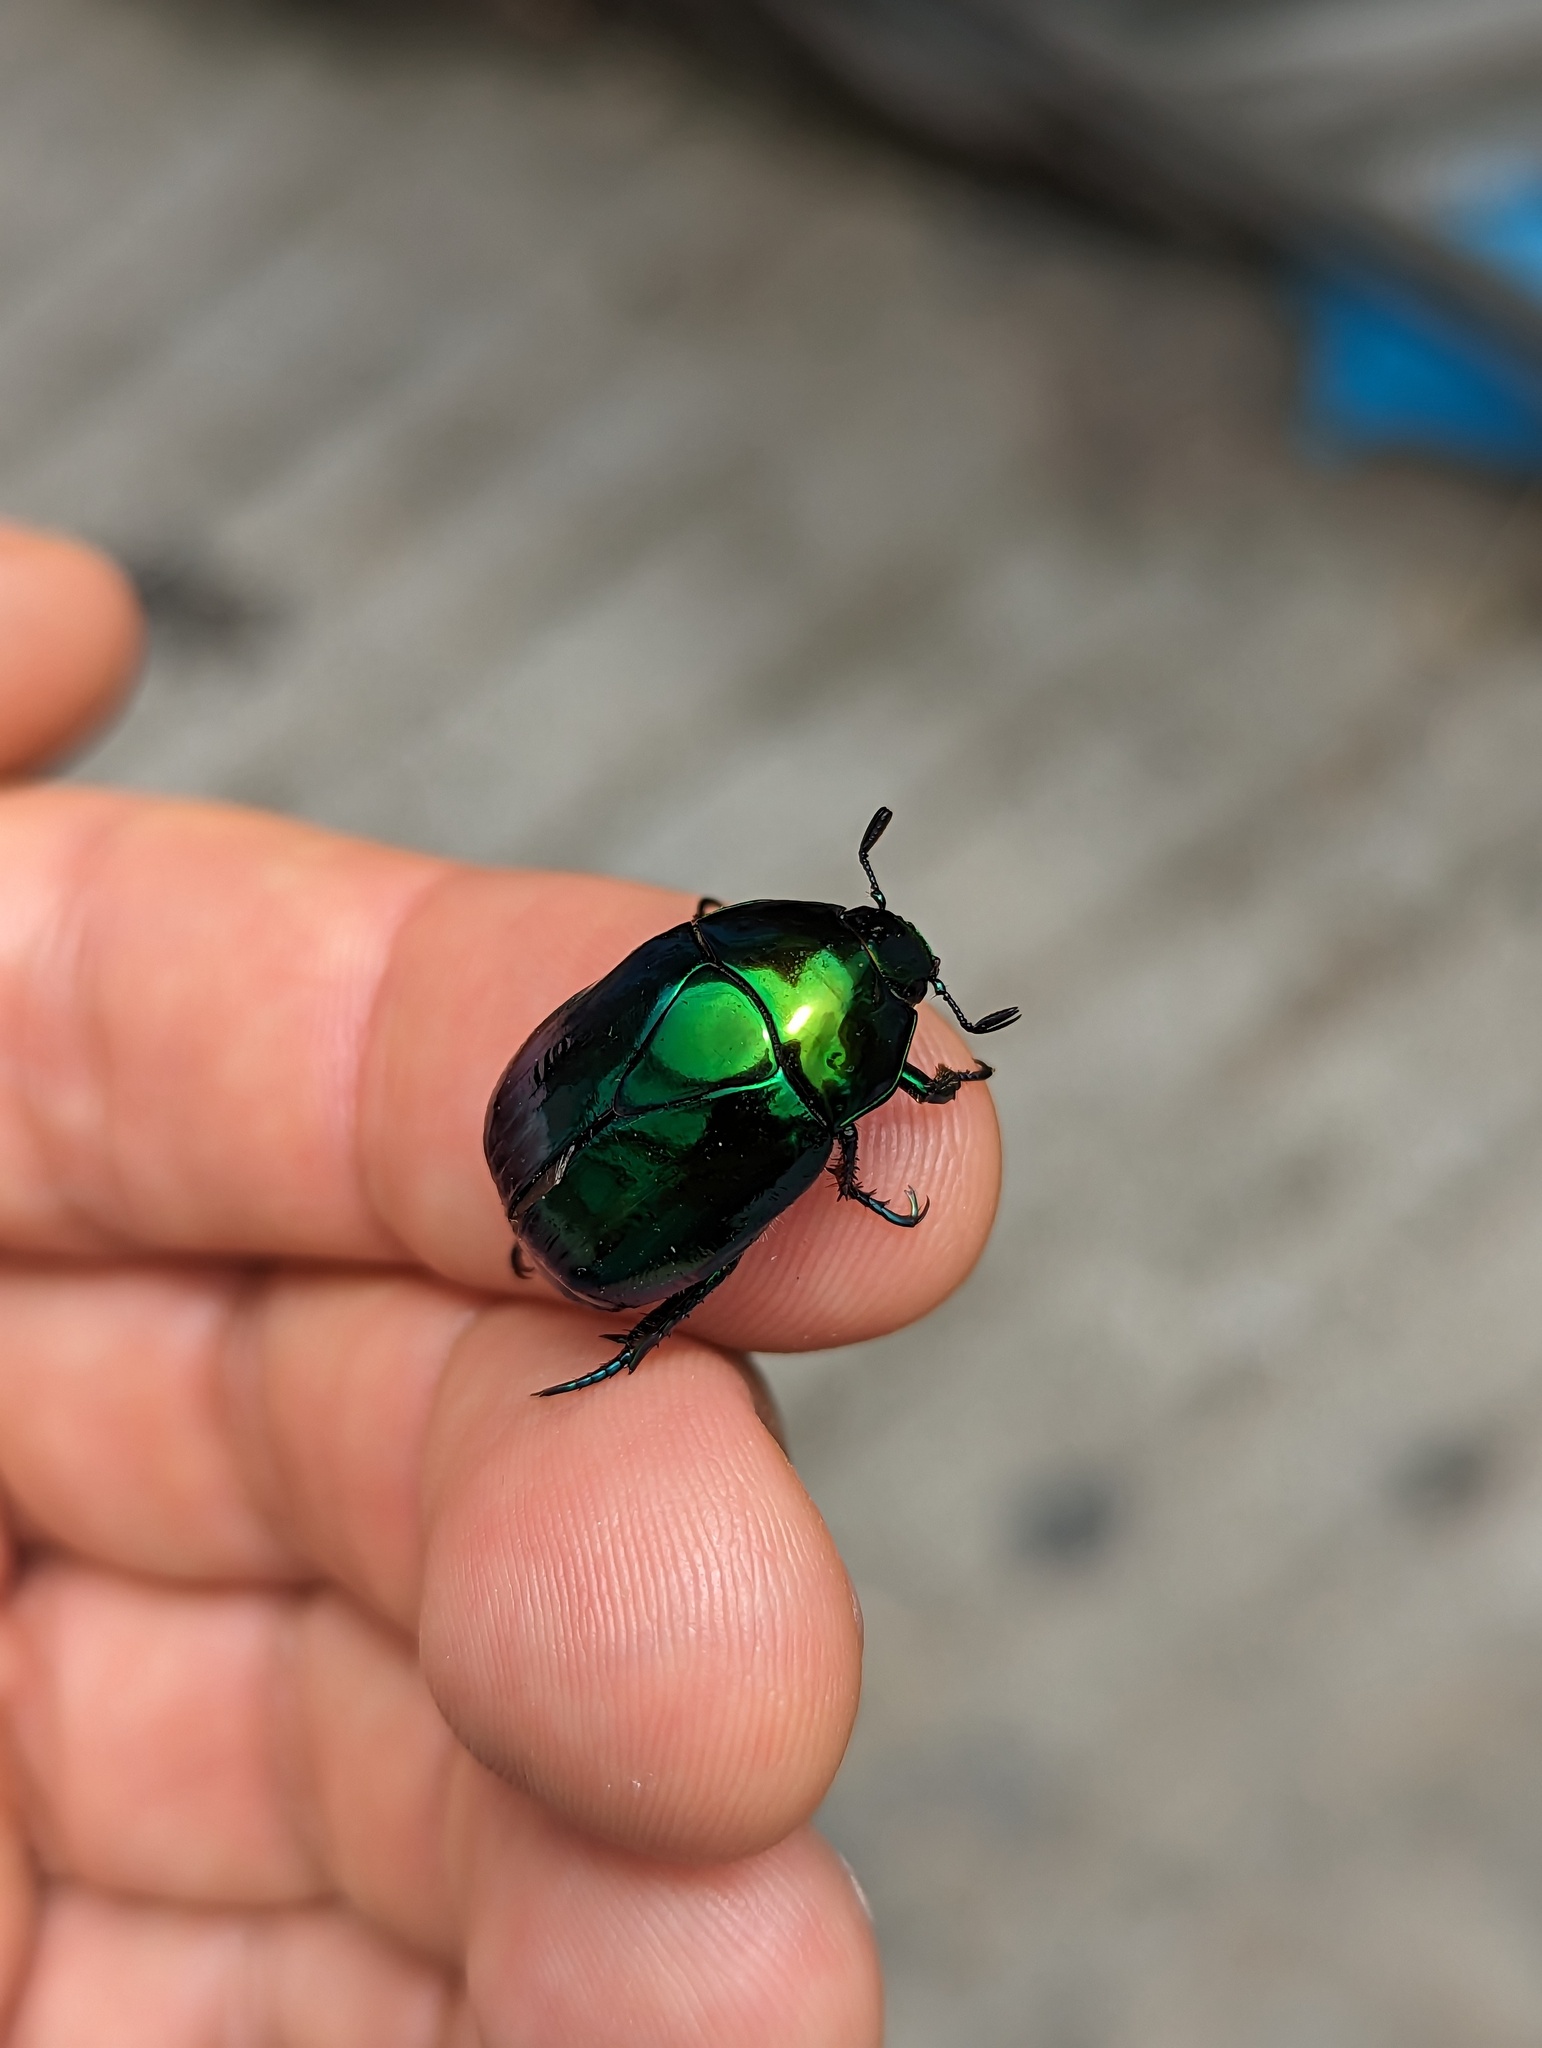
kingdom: Animalia
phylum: Arthropoda
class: Insecta
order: Coleoptera
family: Scarabaeidae
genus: Macraspis
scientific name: Macraspis rufonitida
